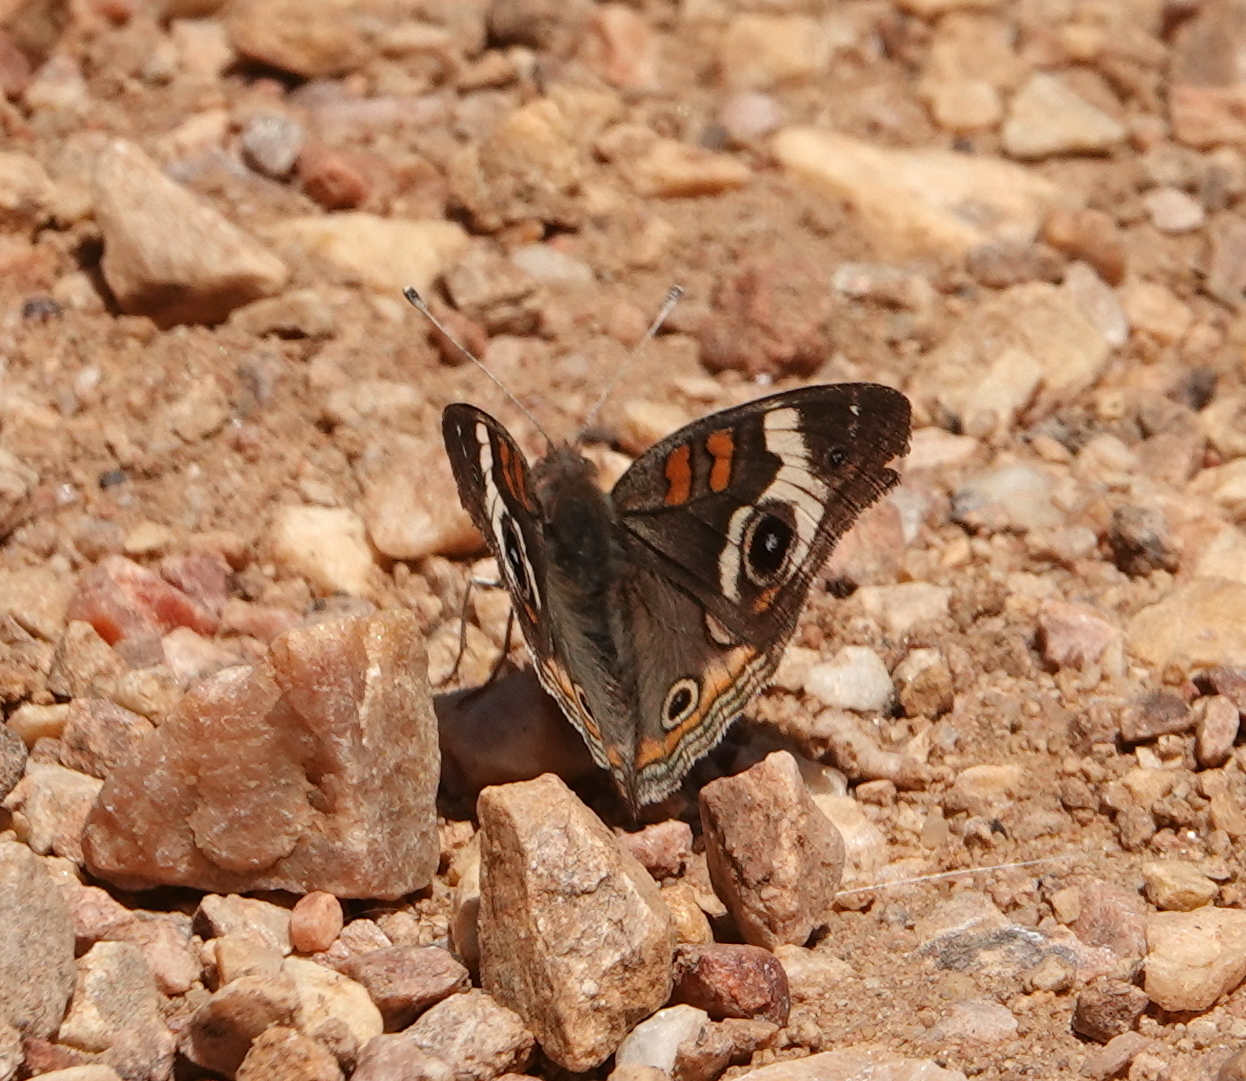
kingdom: Animalia
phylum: Arthropoda
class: Insecta
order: Lepidoptera
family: Nymphalidae
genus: Junonia
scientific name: Junonia grisea
